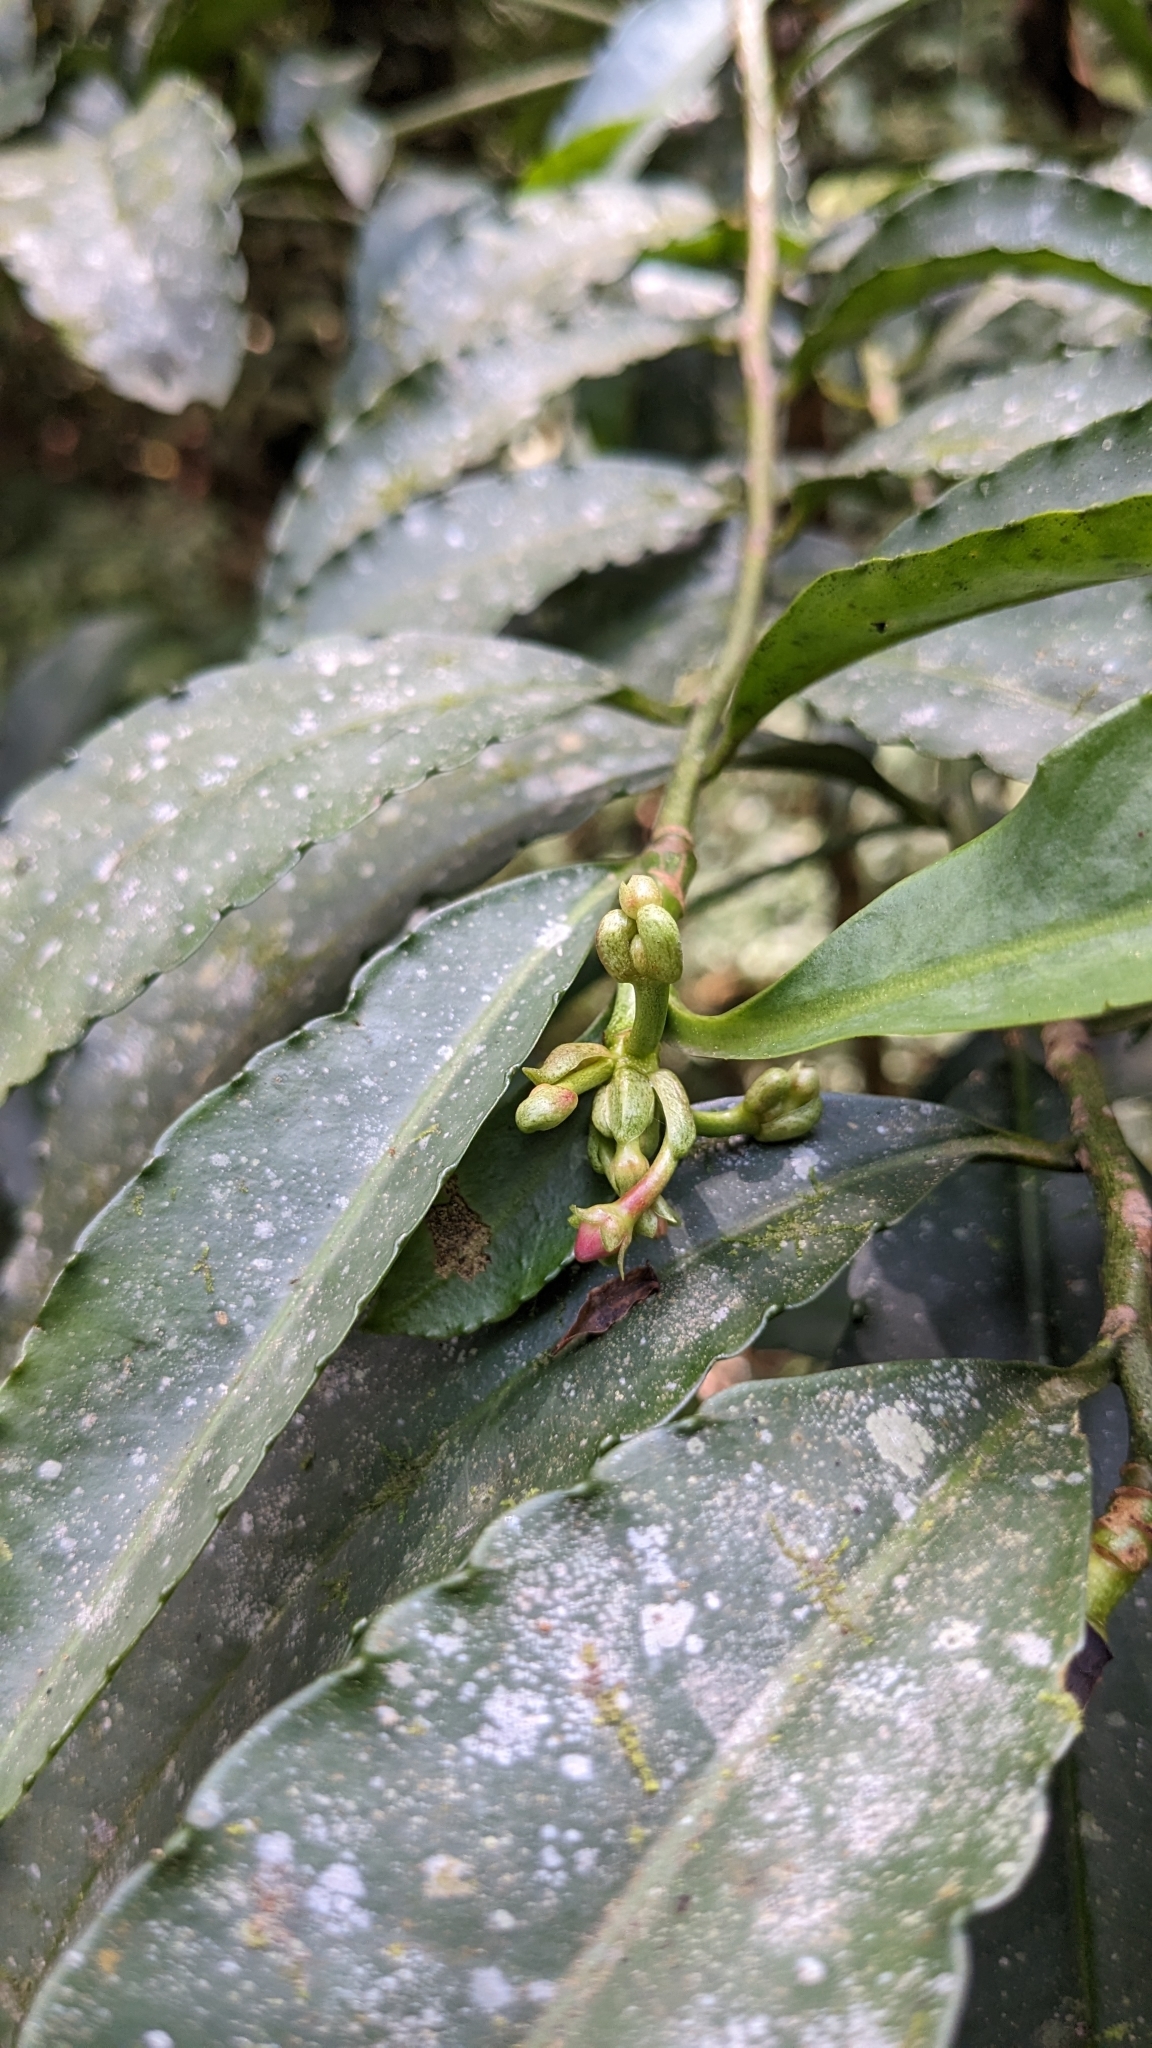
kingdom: Plantae
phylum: Tracheophyta
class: Magnoliopsida
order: Ericales
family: Primulaceae
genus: Ardisia
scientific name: Ardisia polysticta
